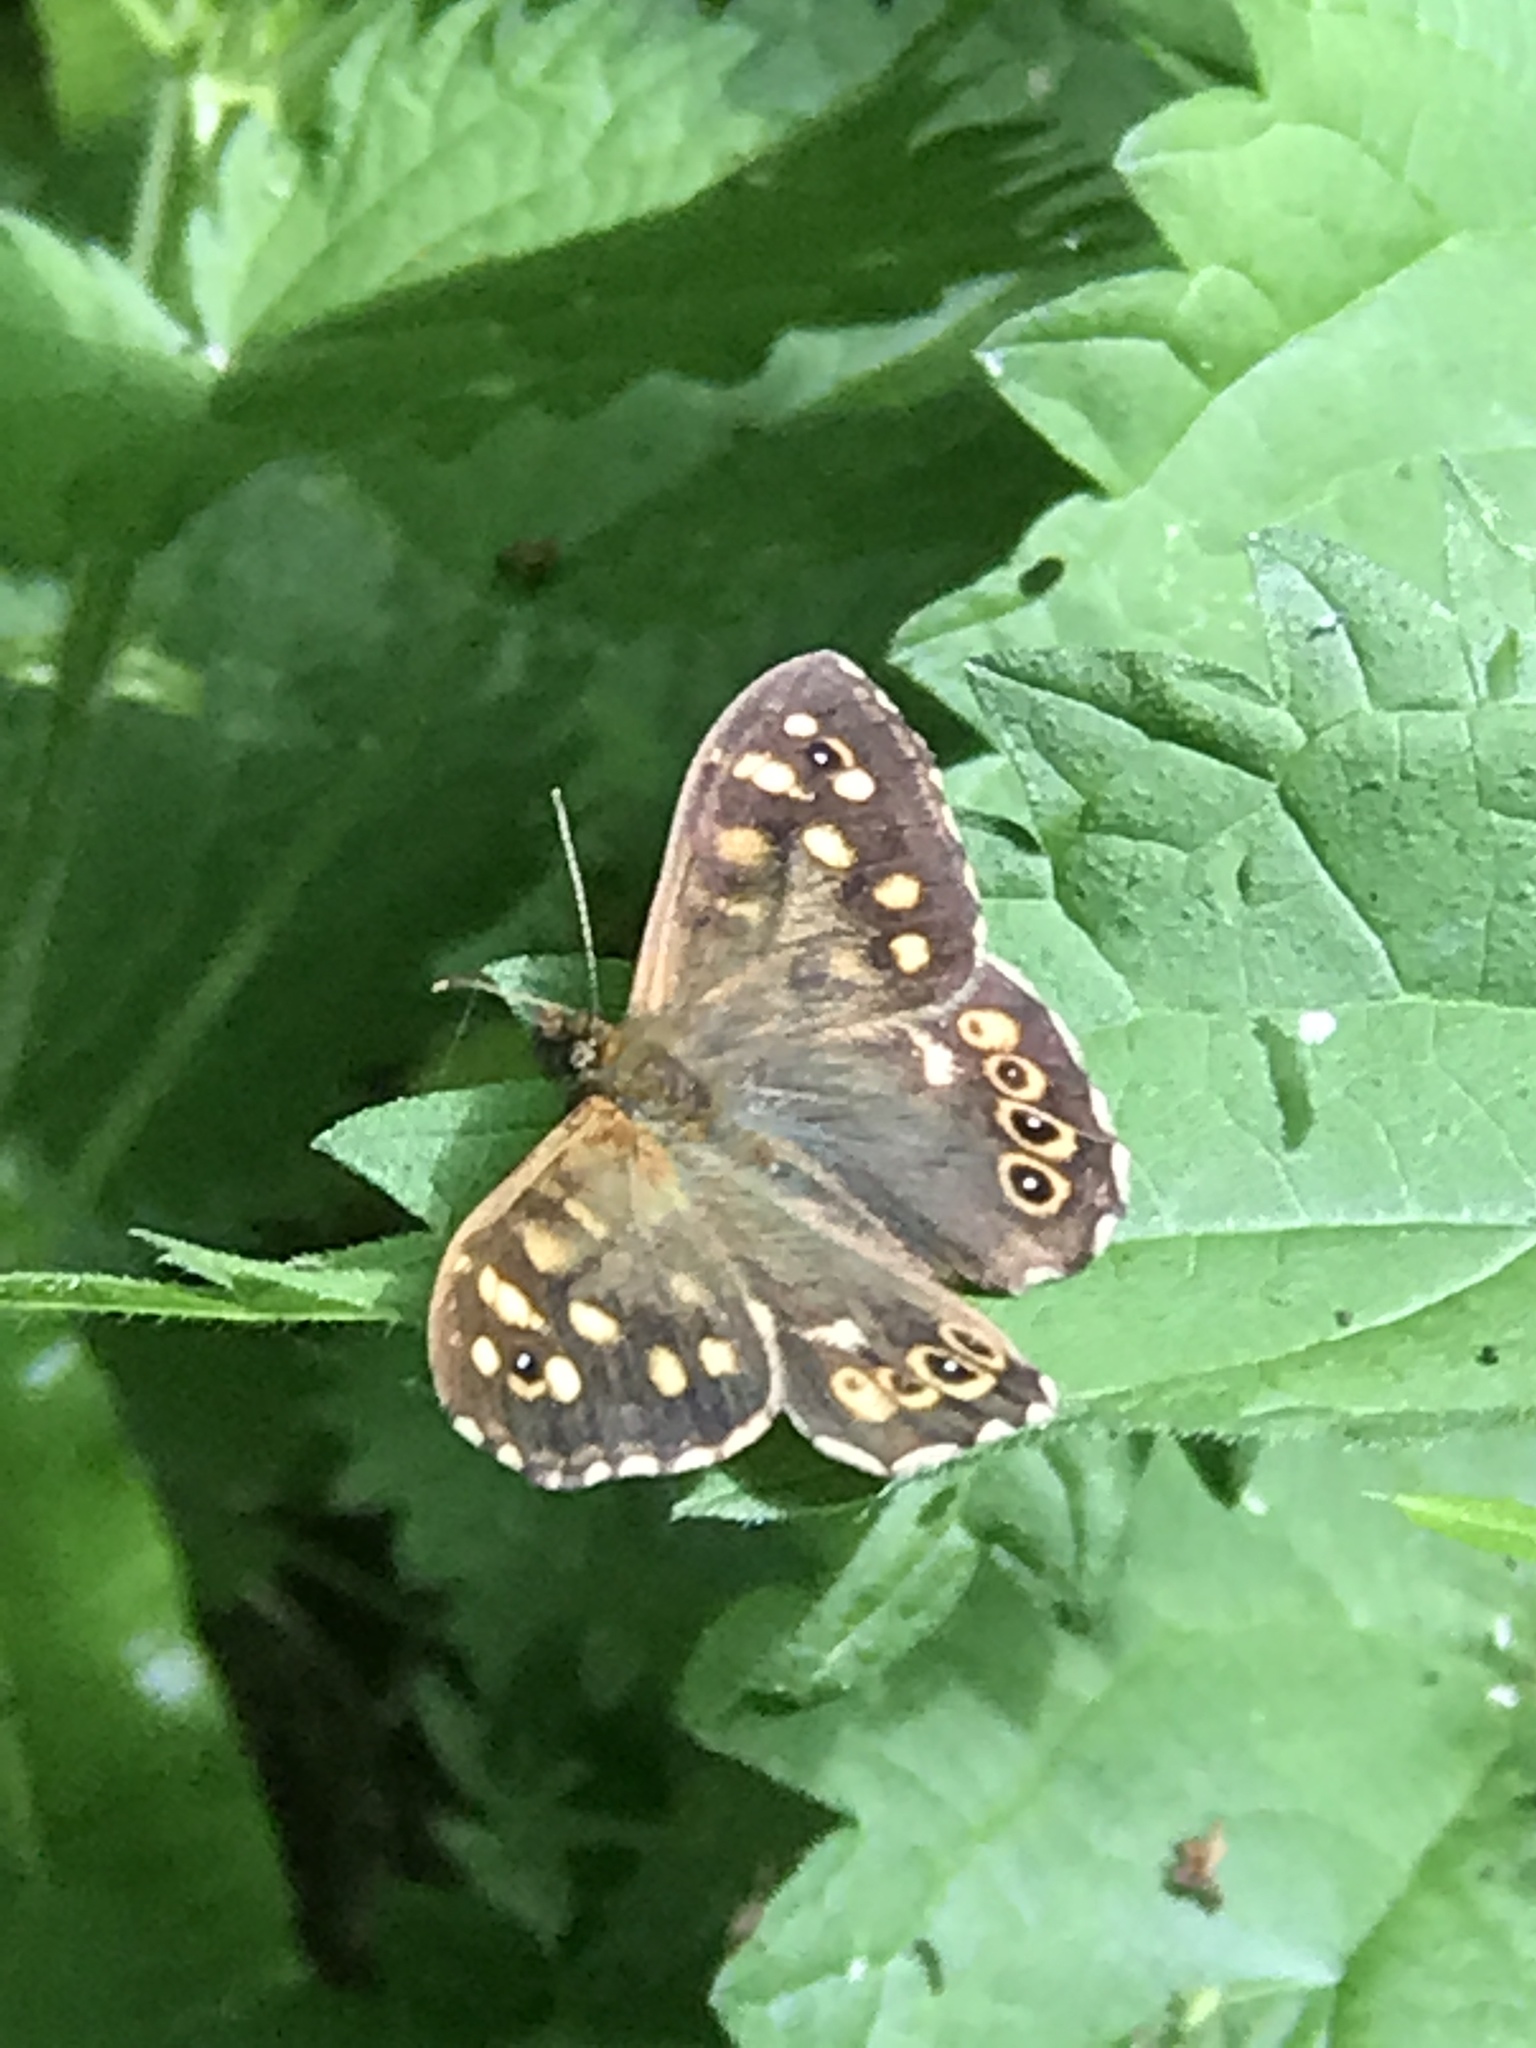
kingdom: Animalia
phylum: Arthropoda
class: Insecta
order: Lepidoptera
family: Nymphalidae
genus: Pararge
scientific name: Pararge aegeria
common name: Speckled wood
